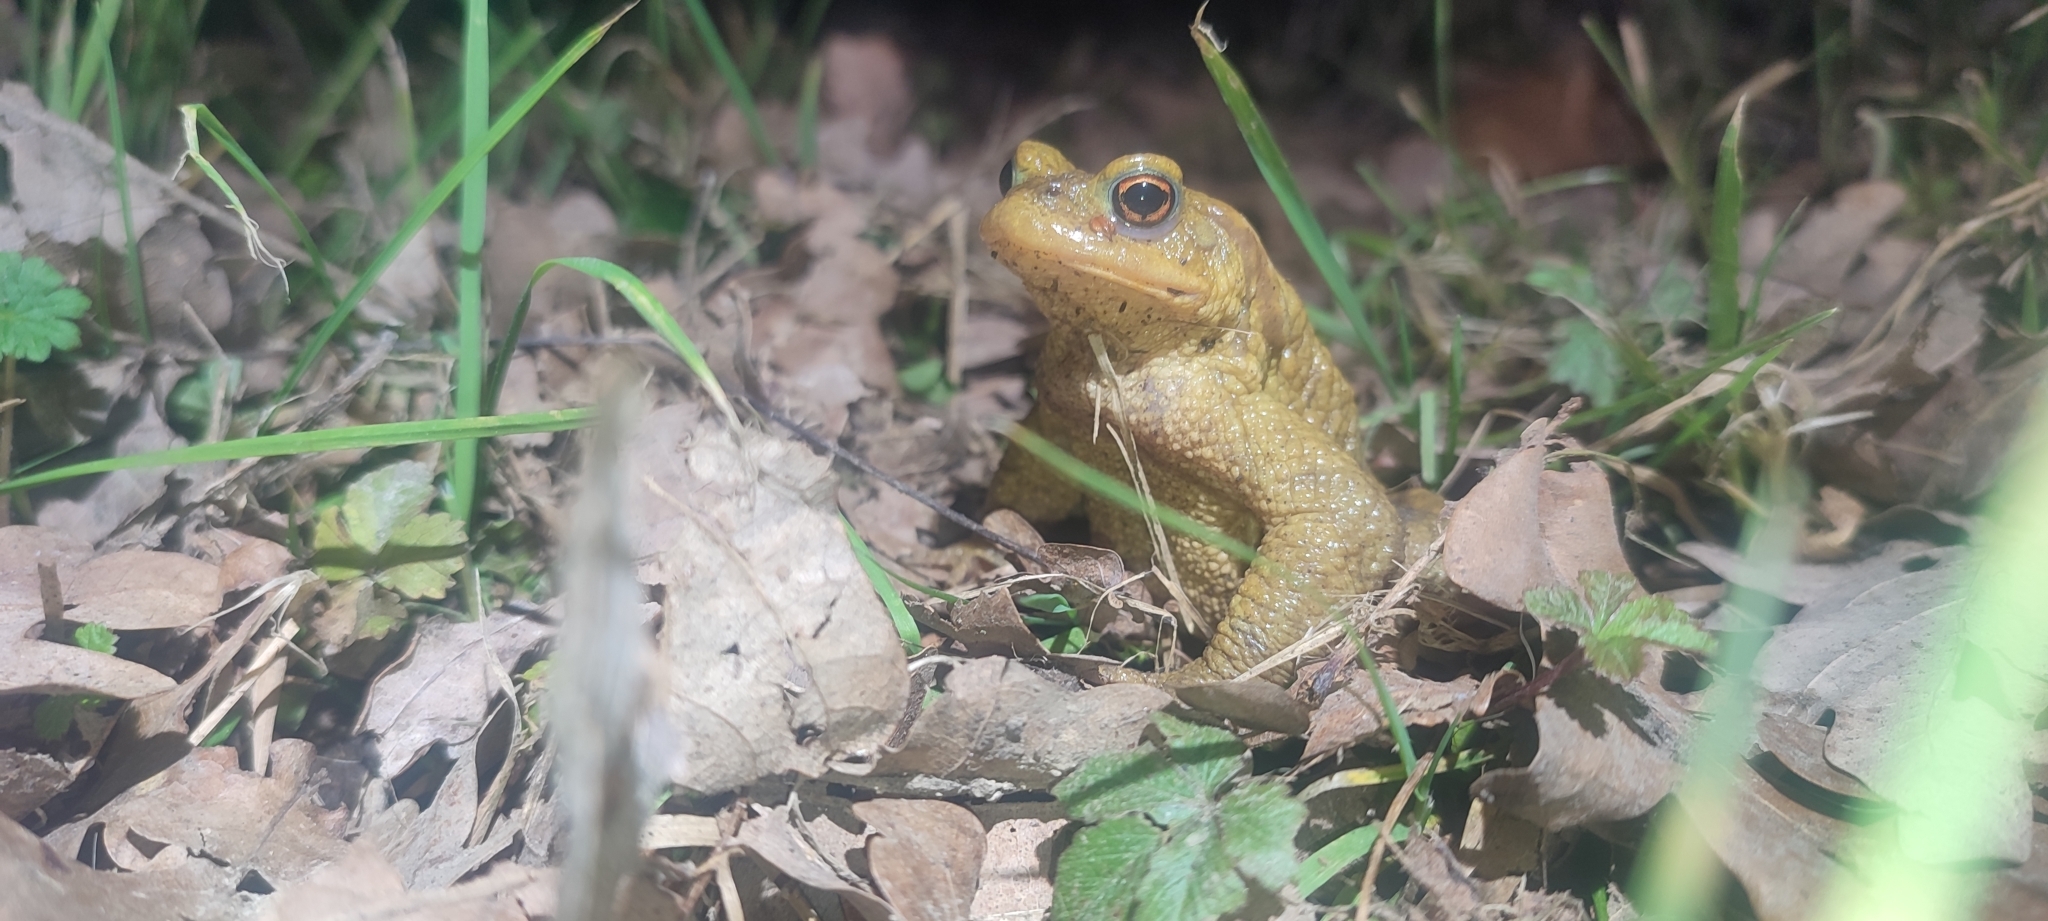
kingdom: Animalia
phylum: Chordata
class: Amphibia
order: Anura
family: Bufonidae
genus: Bufo
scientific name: Bufo spinosus
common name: Western common toad
